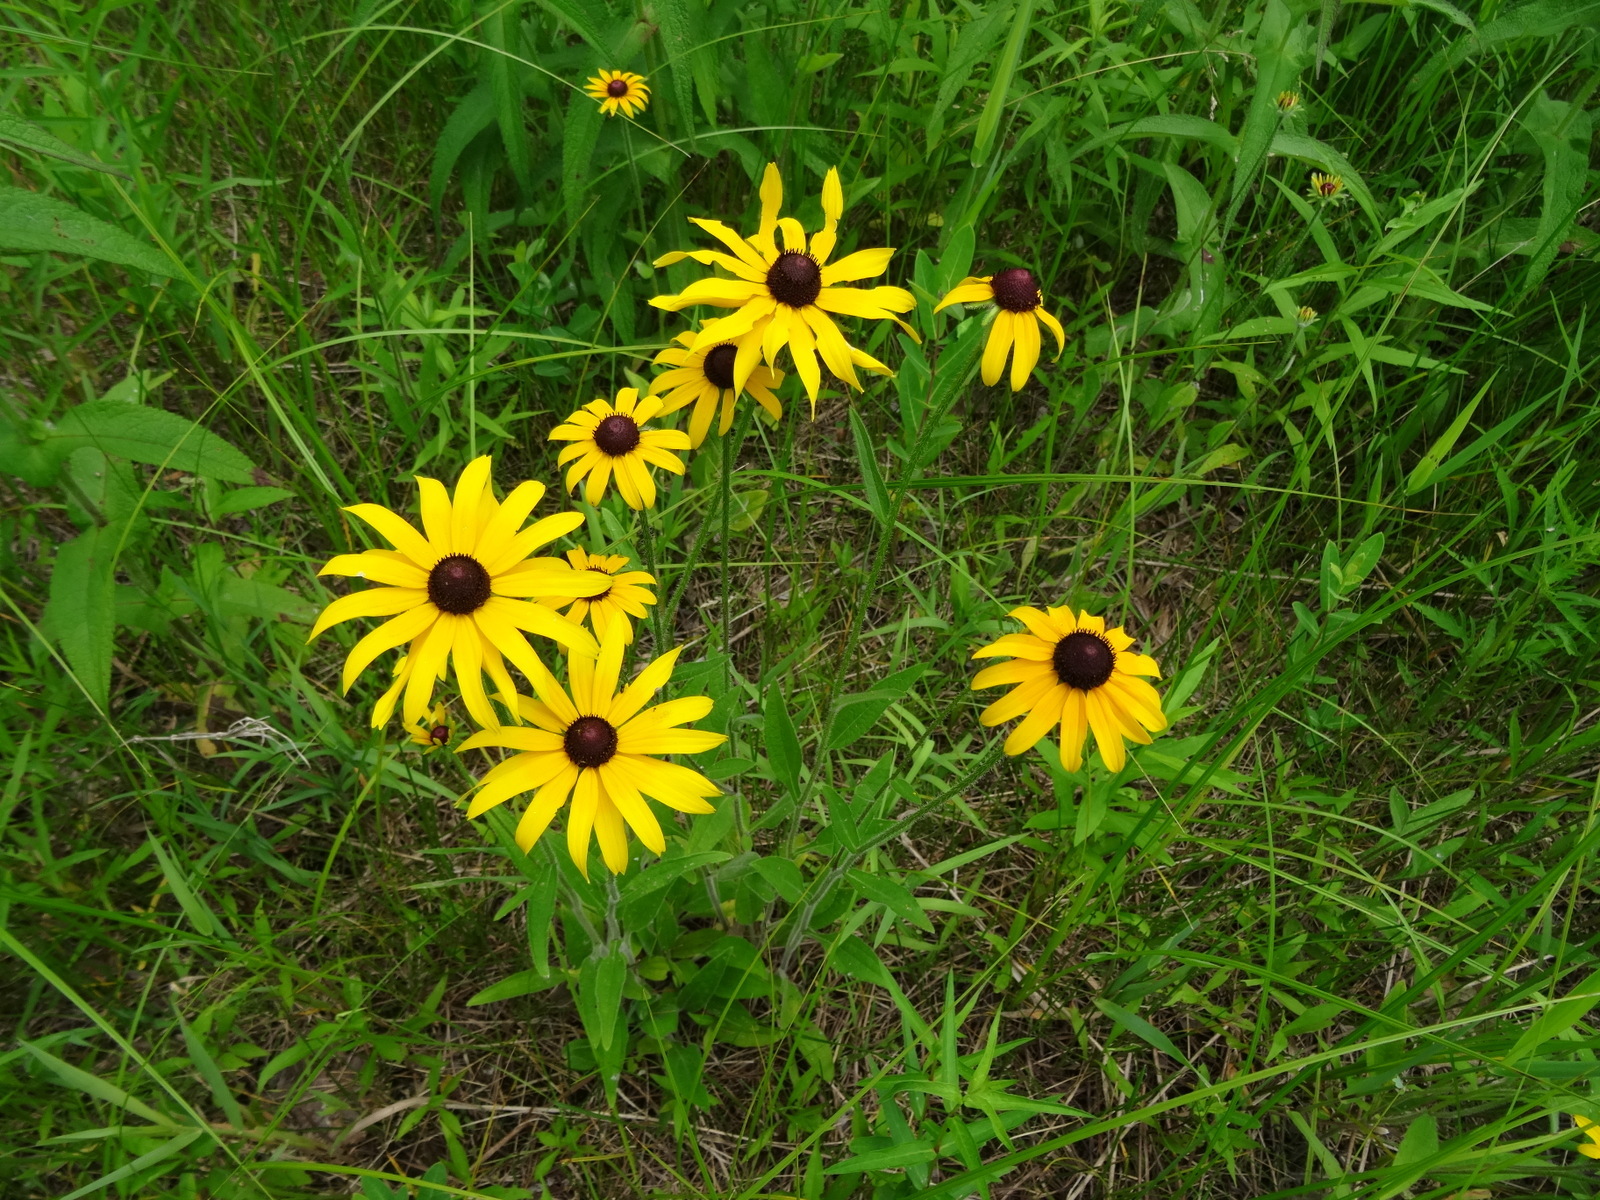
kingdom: Plantae
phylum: Tracheophyta
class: Magnoliopsida
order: Asterales
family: Asteraceae
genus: Rudbeckia
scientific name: Rudbeckia hirta
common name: Black-eyed-susan
